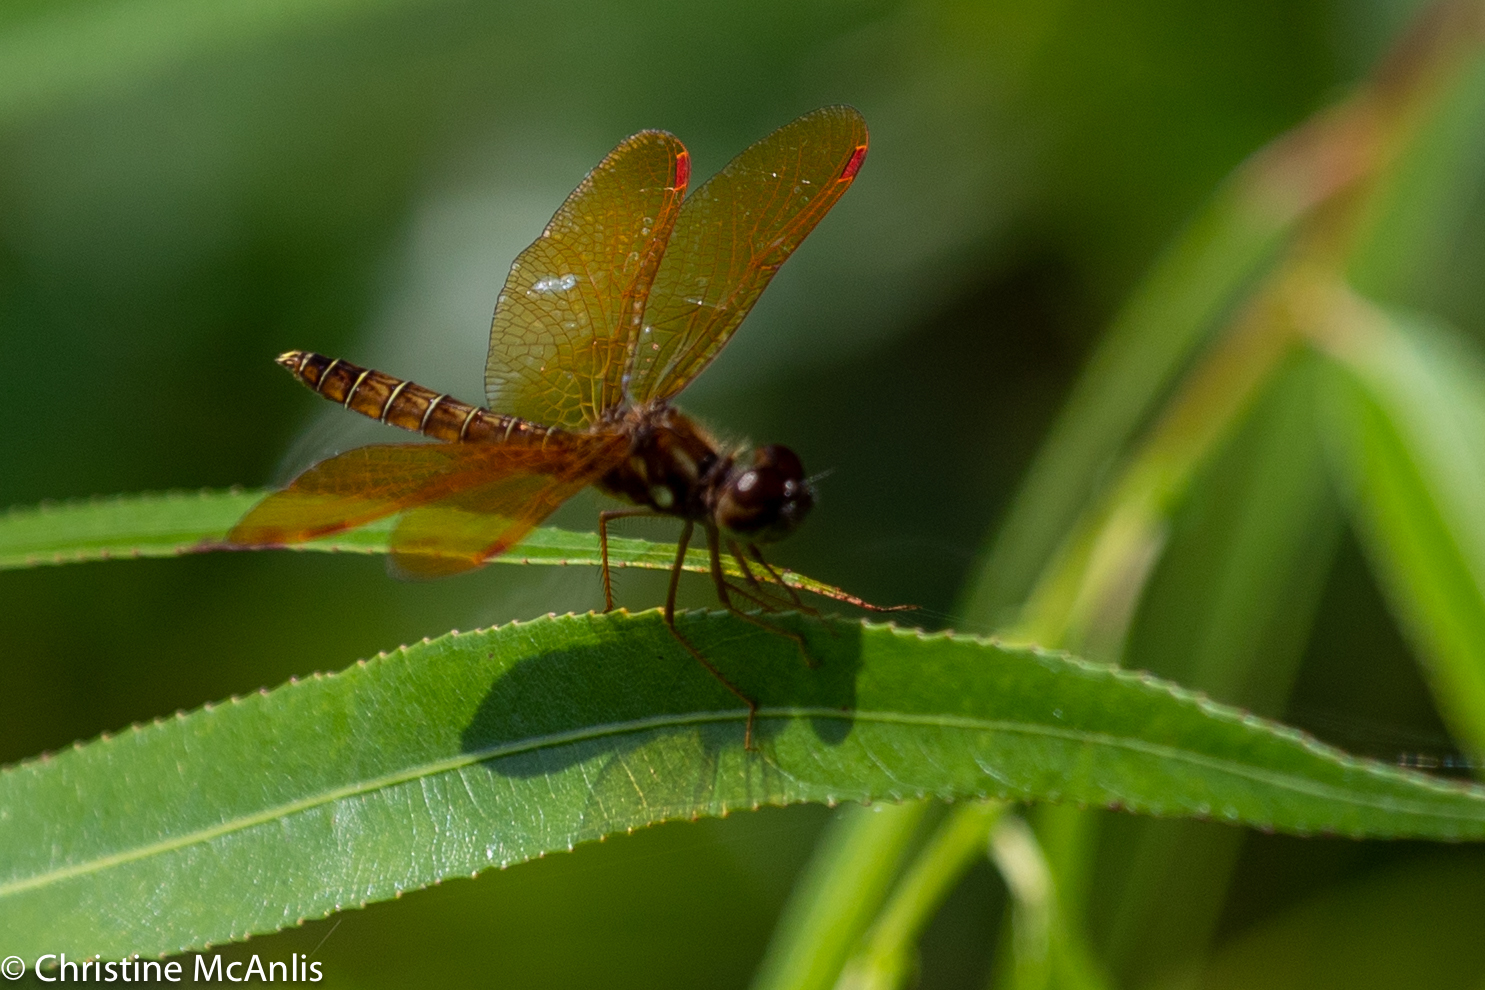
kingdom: Animalia
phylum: Arthropoda
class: Insecta
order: Odonata
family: Libellulidae
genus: Perithemis
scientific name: Perithemis tenera
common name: Eastern amberwing
